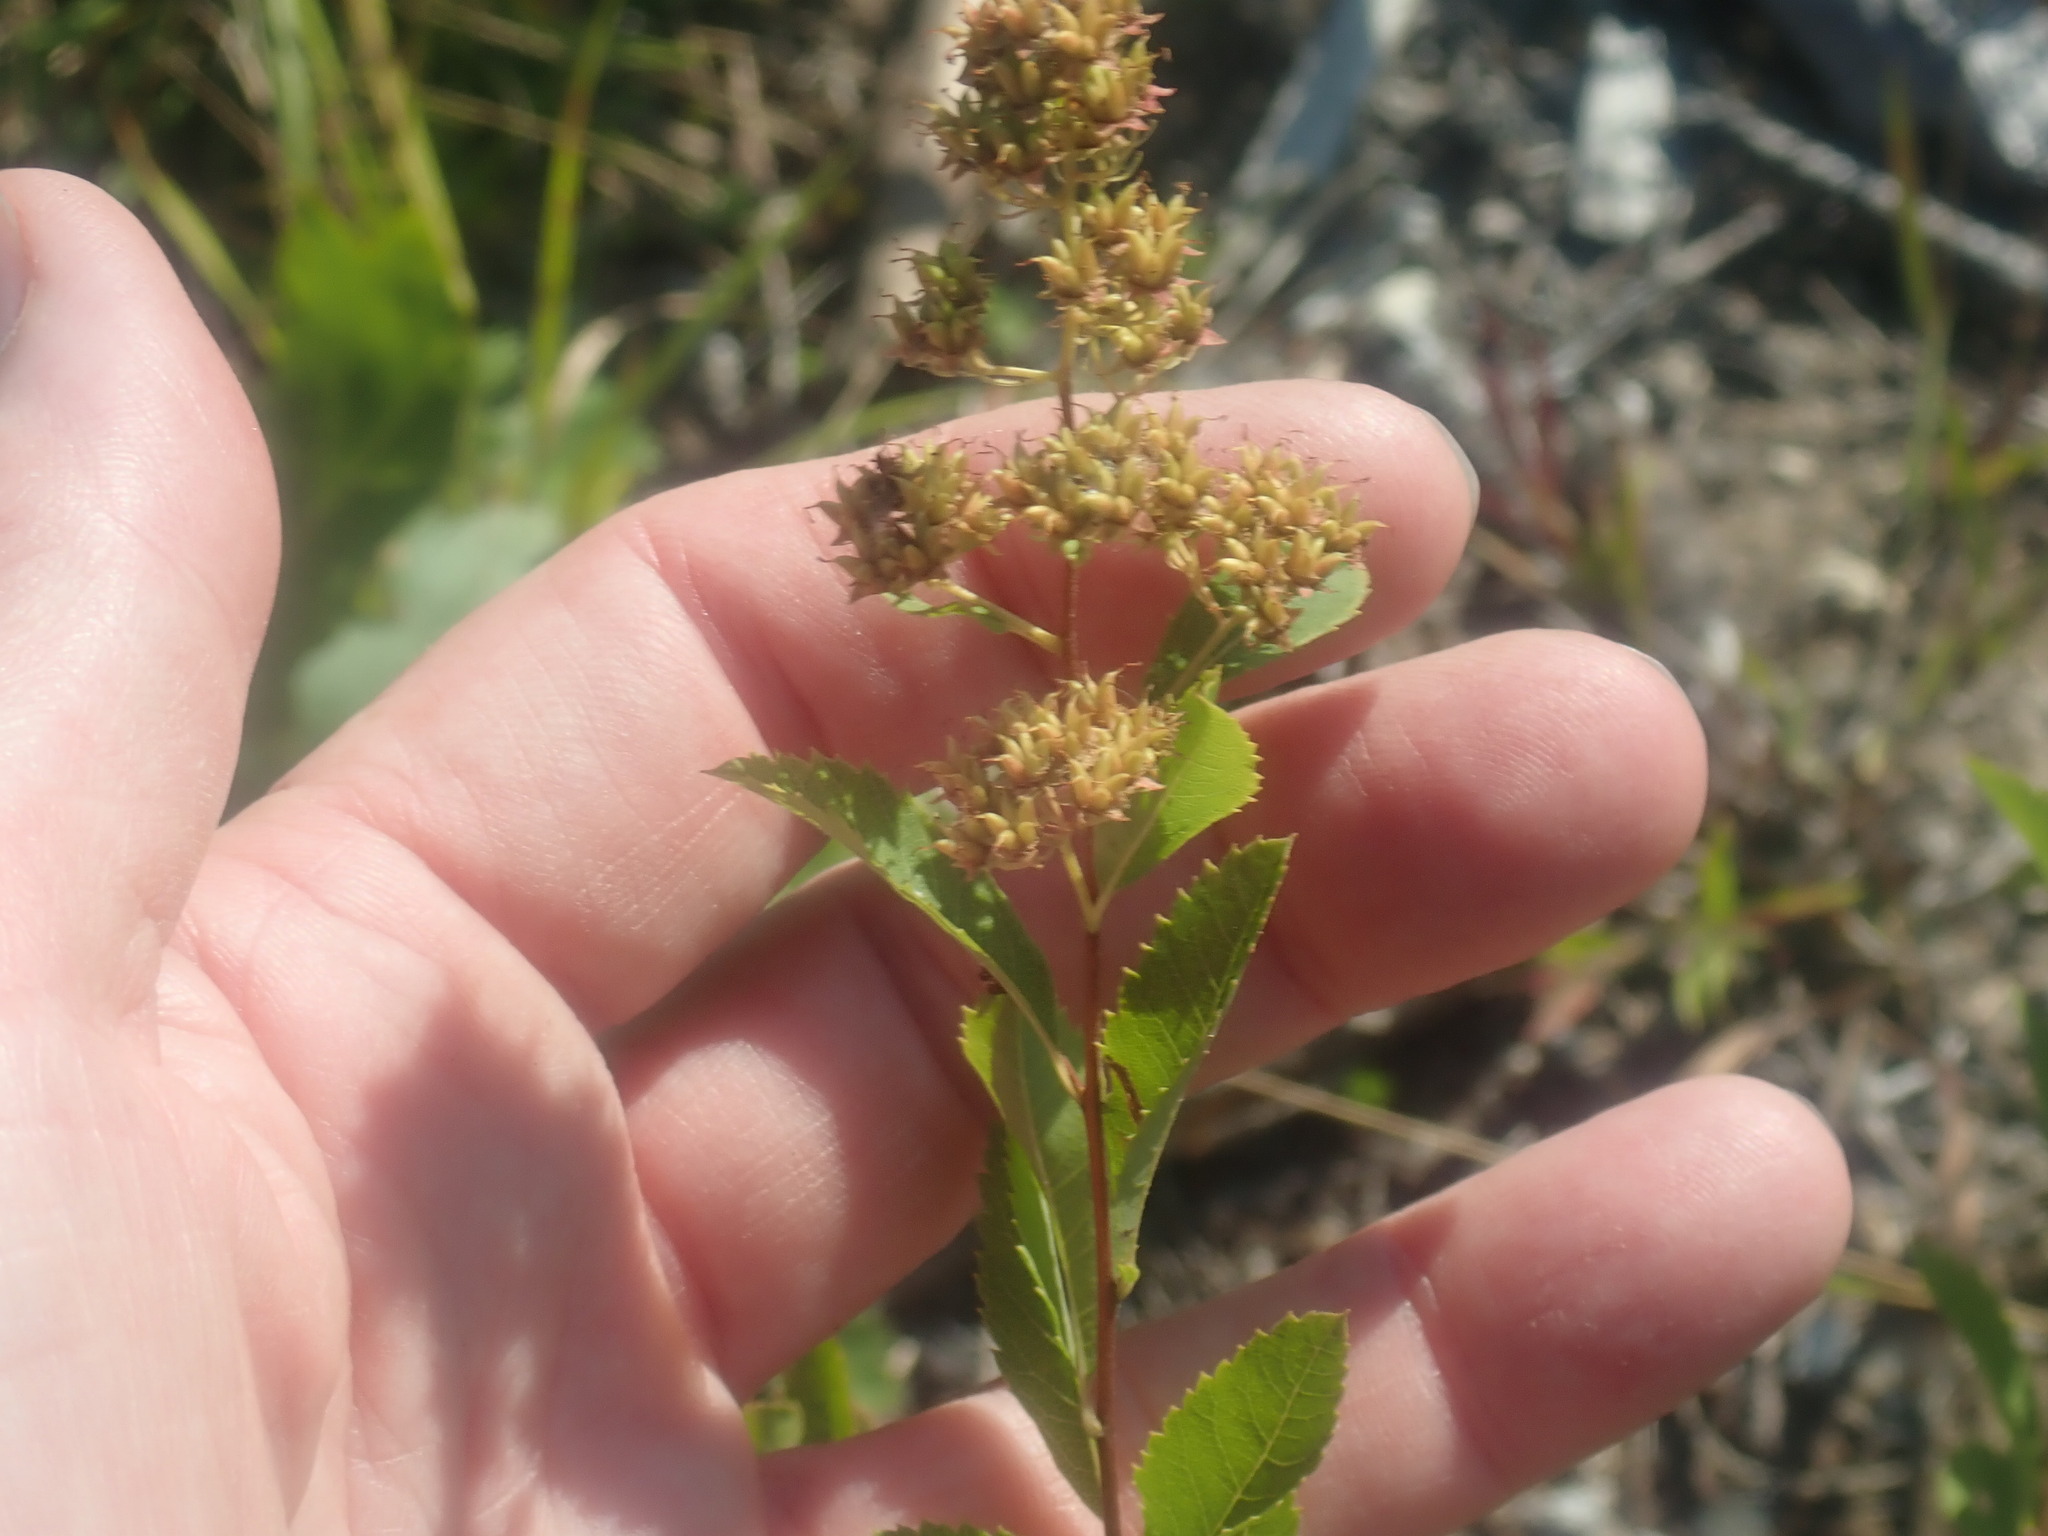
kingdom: Plantae
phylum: Tracheophyta
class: Magnoliopsida
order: Rosales
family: Rosaceae
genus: Spiraea
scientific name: Spiraea alba
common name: Pale bridewort
